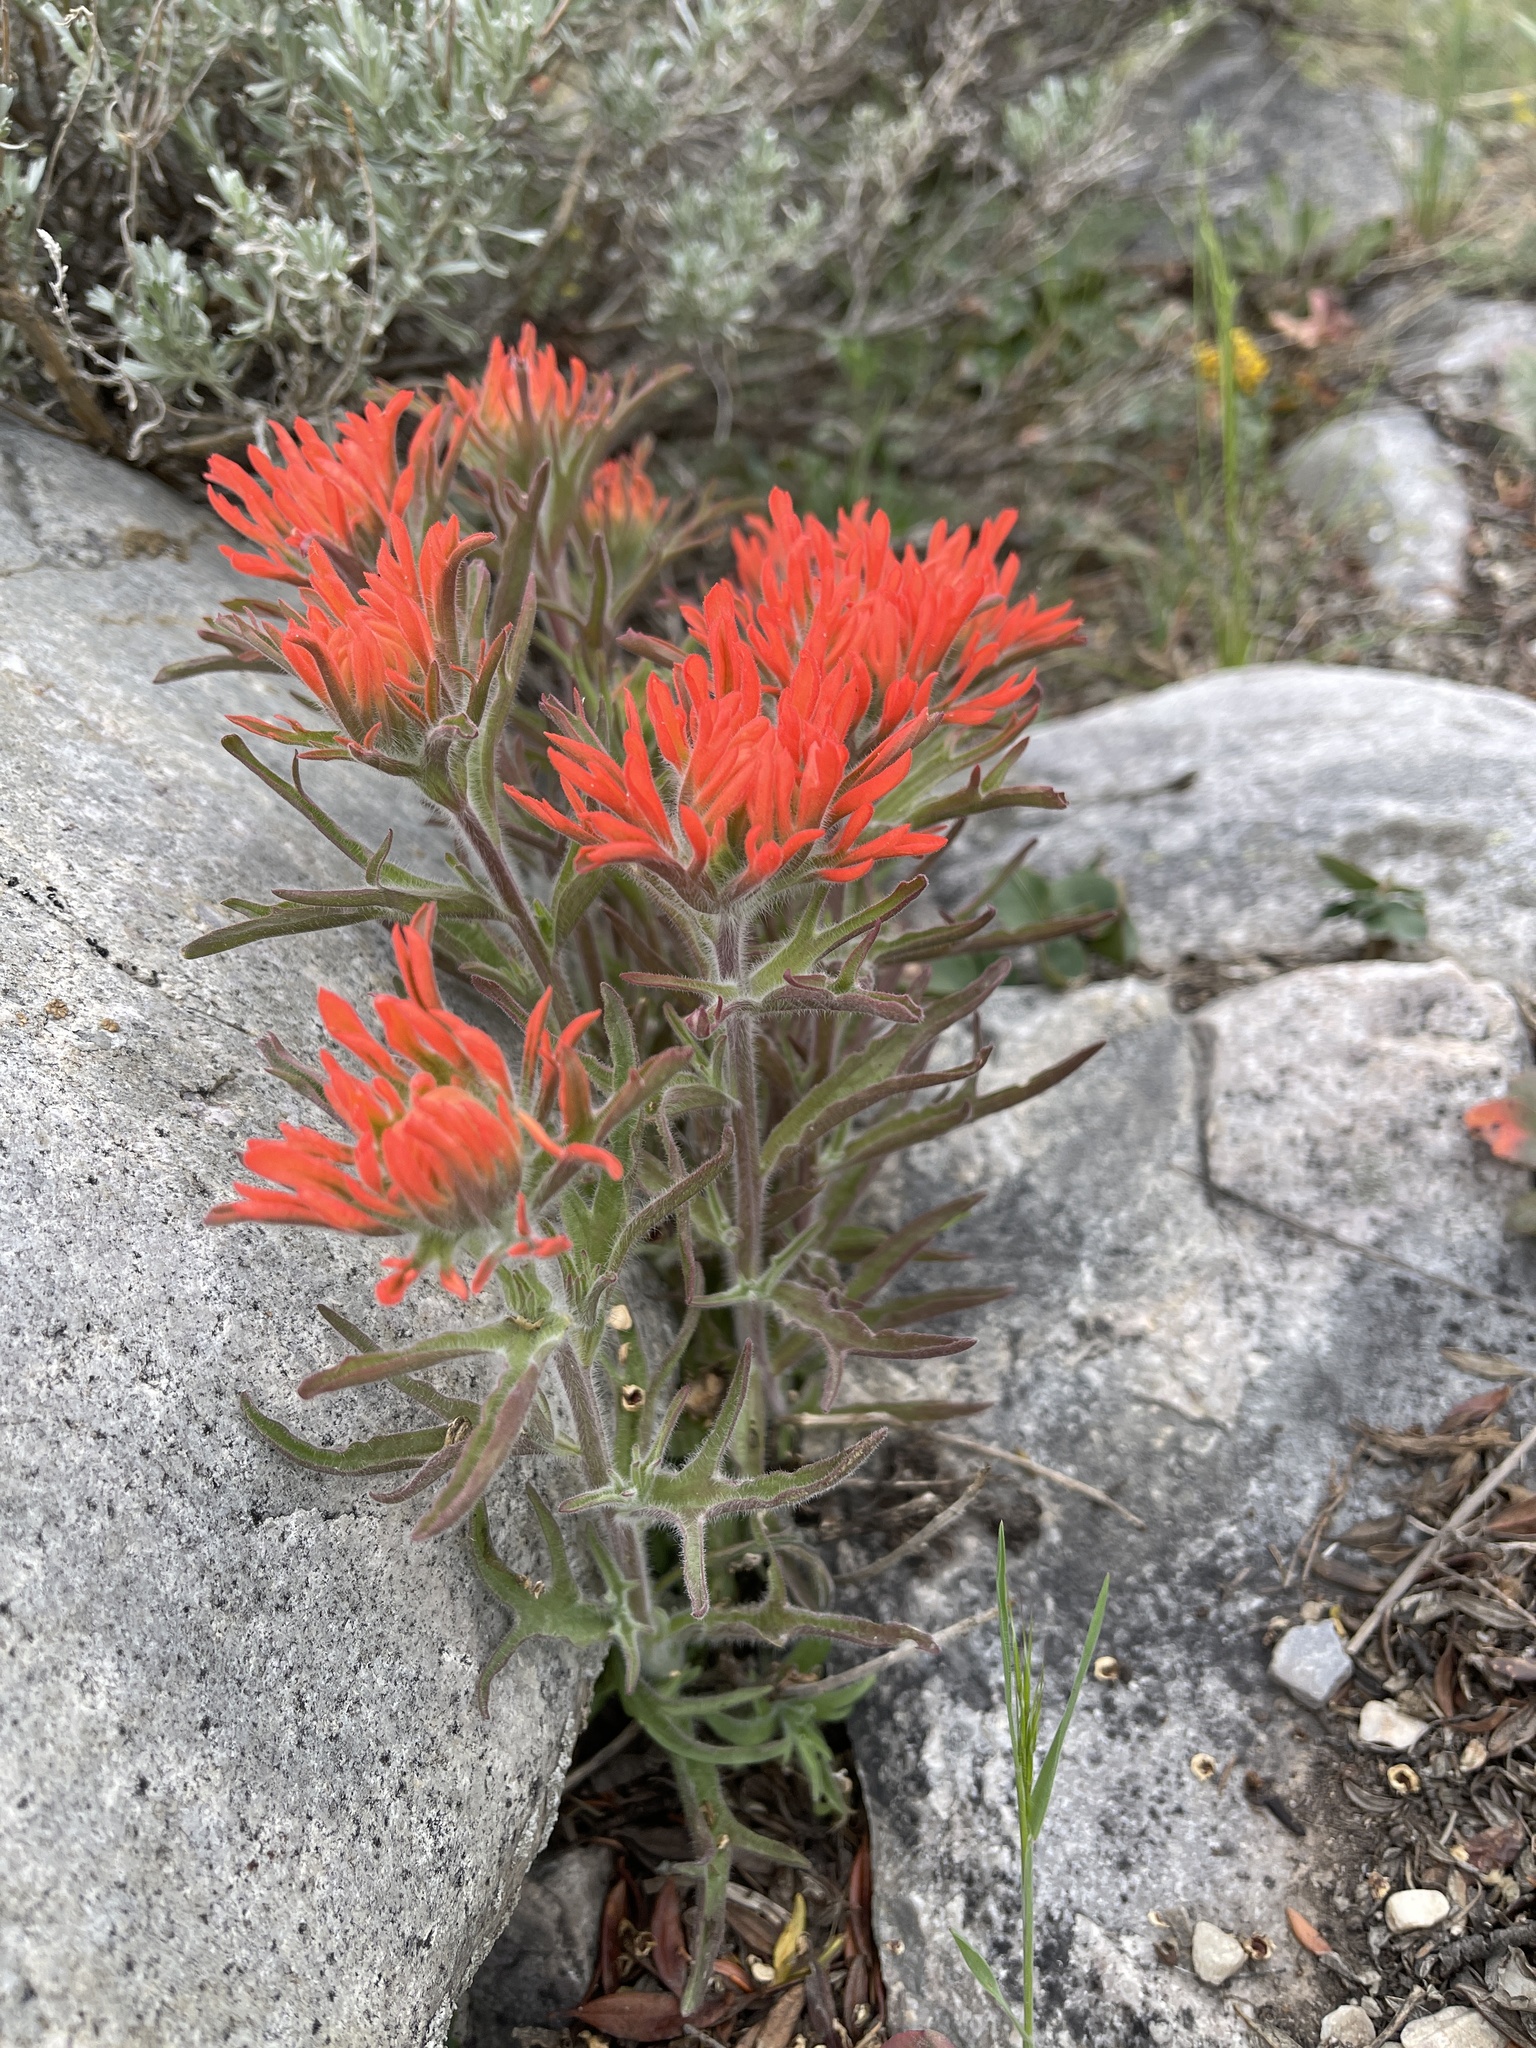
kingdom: Plantae
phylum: Tracheophyta
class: Magnoliopsida
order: Lamiales
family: Orobanchaceae
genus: Castilleja
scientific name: Castilleja chromosa
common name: Desert paintbrush
